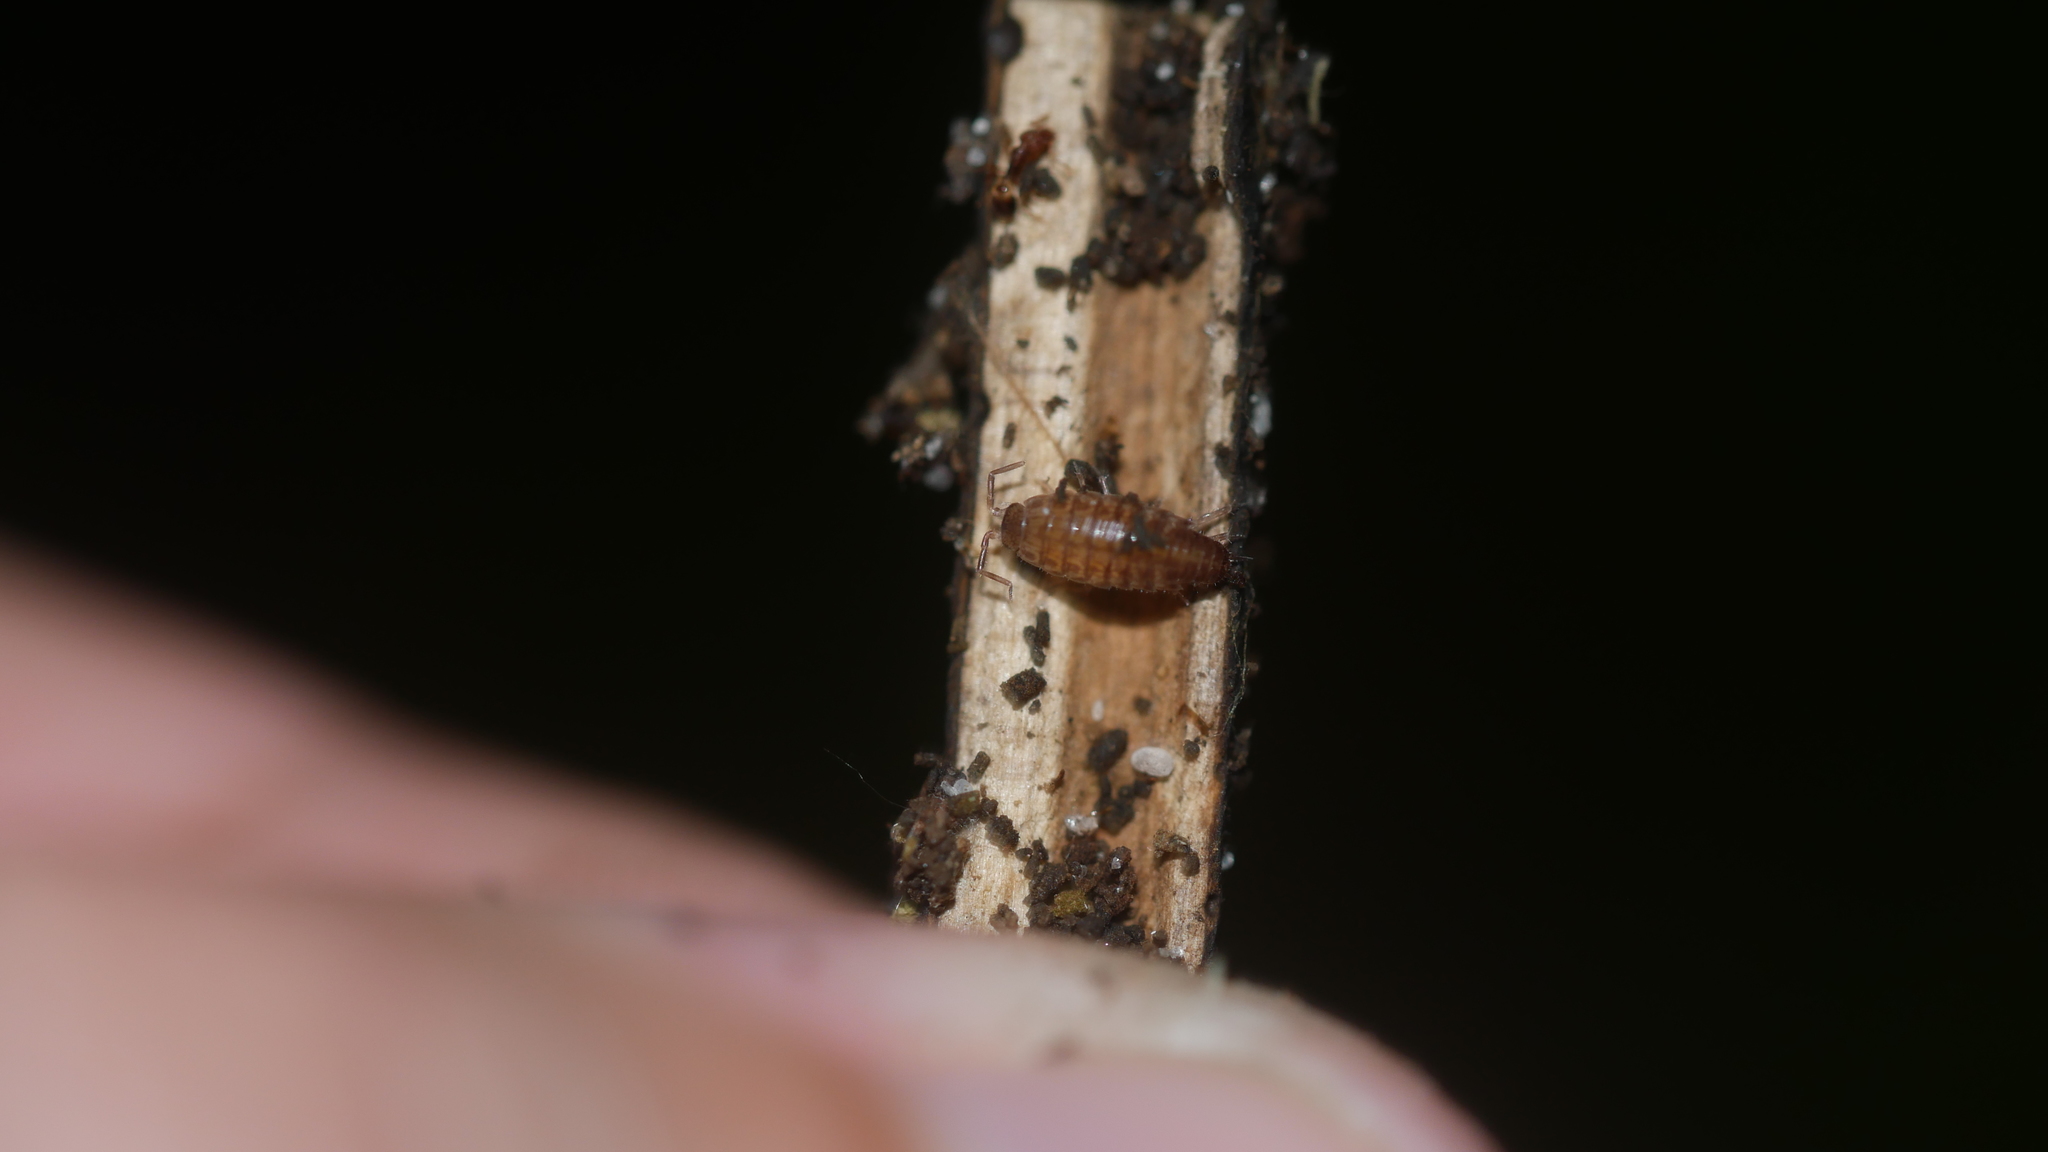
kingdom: Animalia
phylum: Arthropoda
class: Malacostraca
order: Isopoda
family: Philosciidae
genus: Chaetophiloscia
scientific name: Chaetophiloscia sicula
